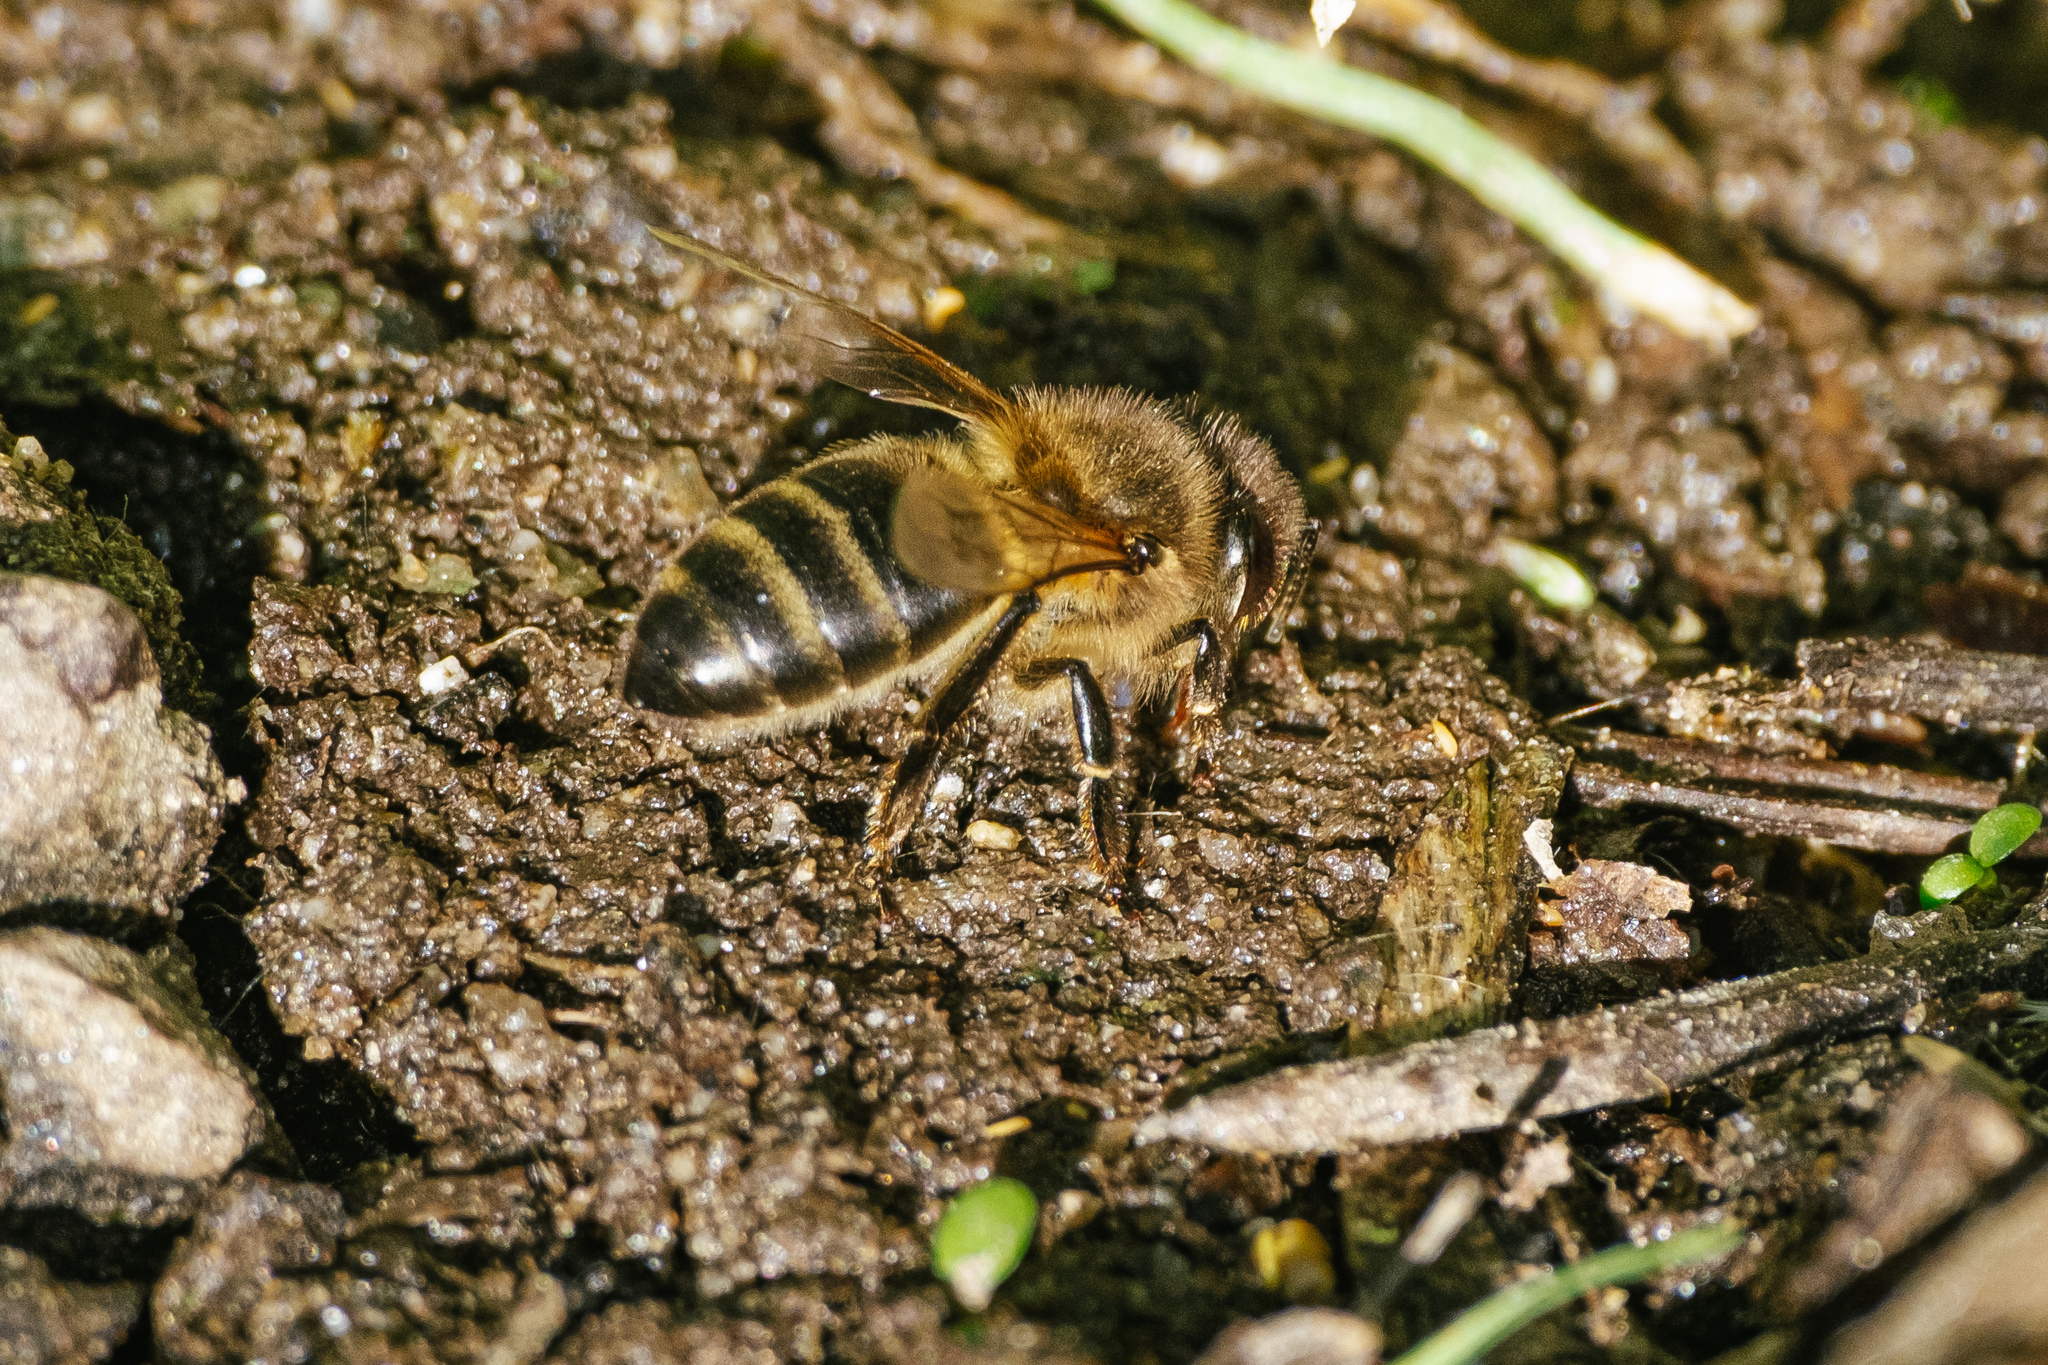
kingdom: Animalia
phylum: Arthropoda
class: Insecta
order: Hymenoptera
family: Apidae
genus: Apis
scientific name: Apis mellifera
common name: Honey bee
